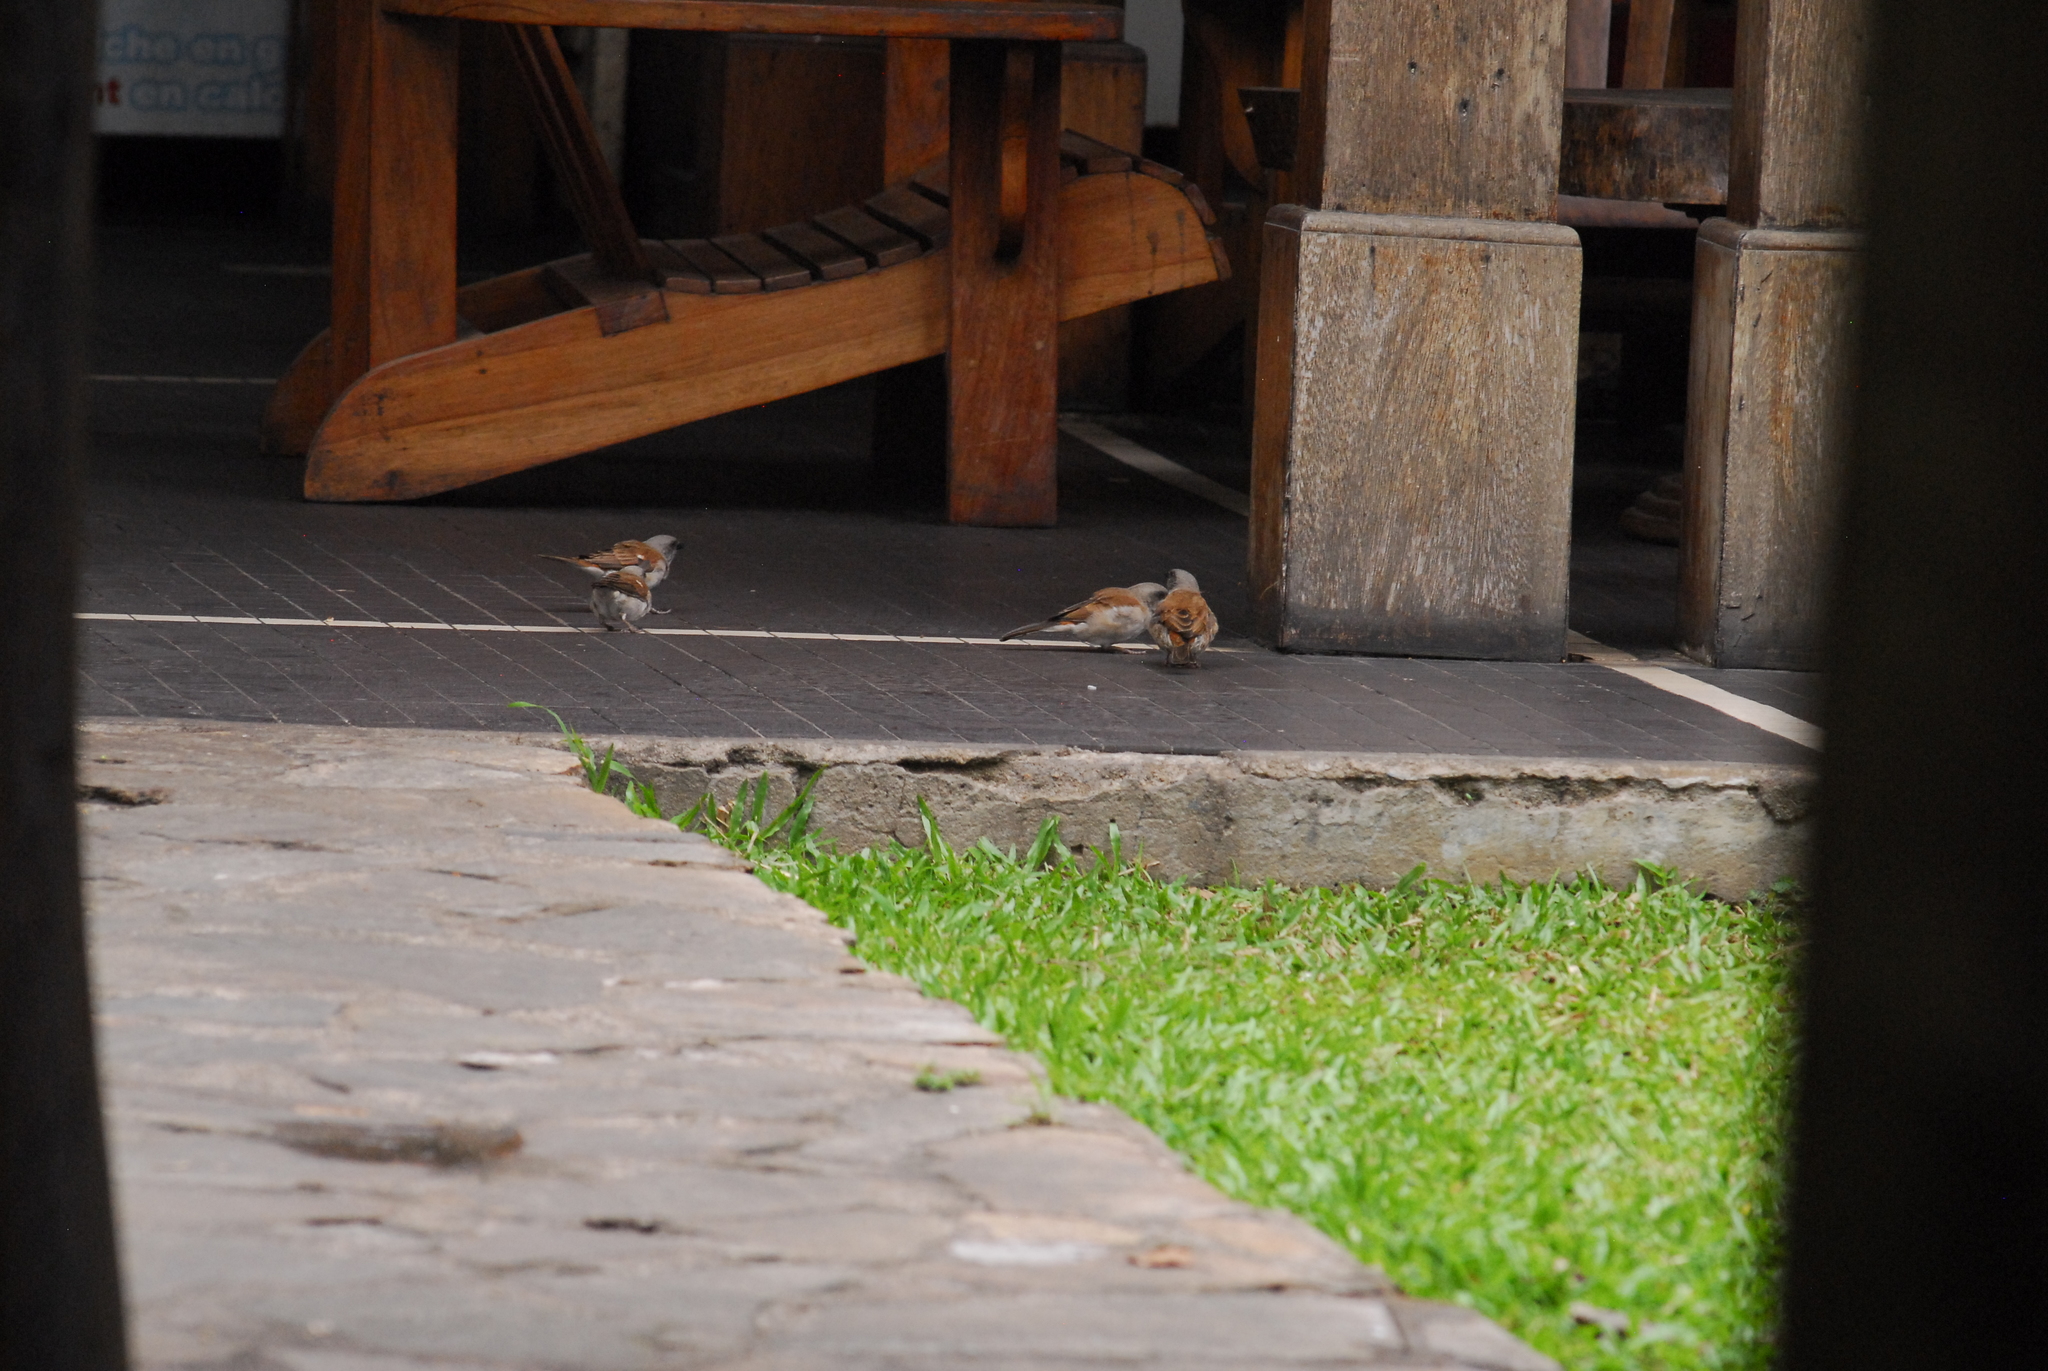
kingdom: Animalia
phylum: Chordata
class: Aves
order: Passeriformes
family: Passeridae
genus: Passer
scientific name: Passer griseus
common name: Northern grey-headed sparrow
